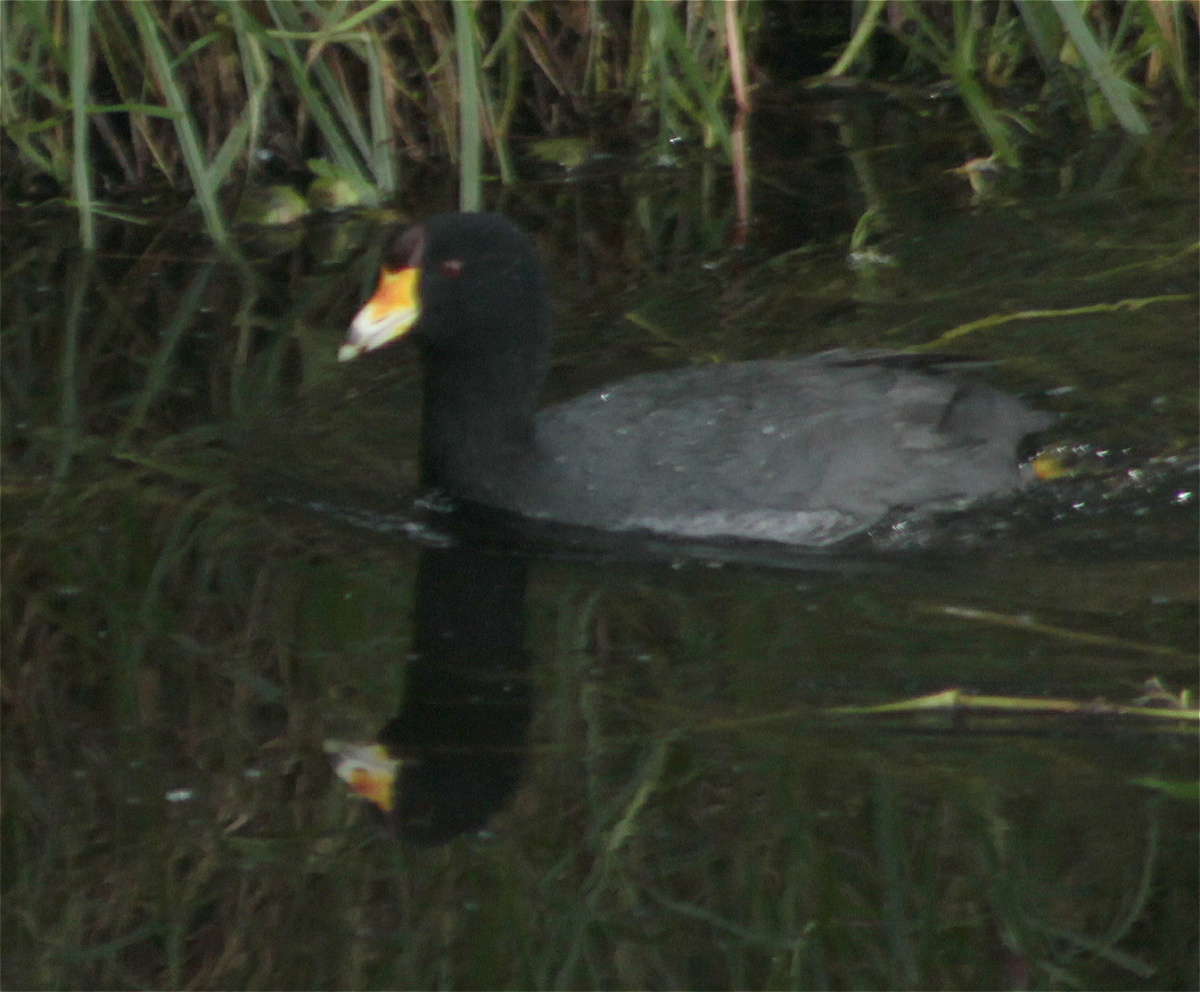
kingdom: Animalia
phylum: Chordata
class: Aves
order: Gruiformes
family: Rallidae
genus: Fulica
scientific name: Fulica americana
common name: American coot
